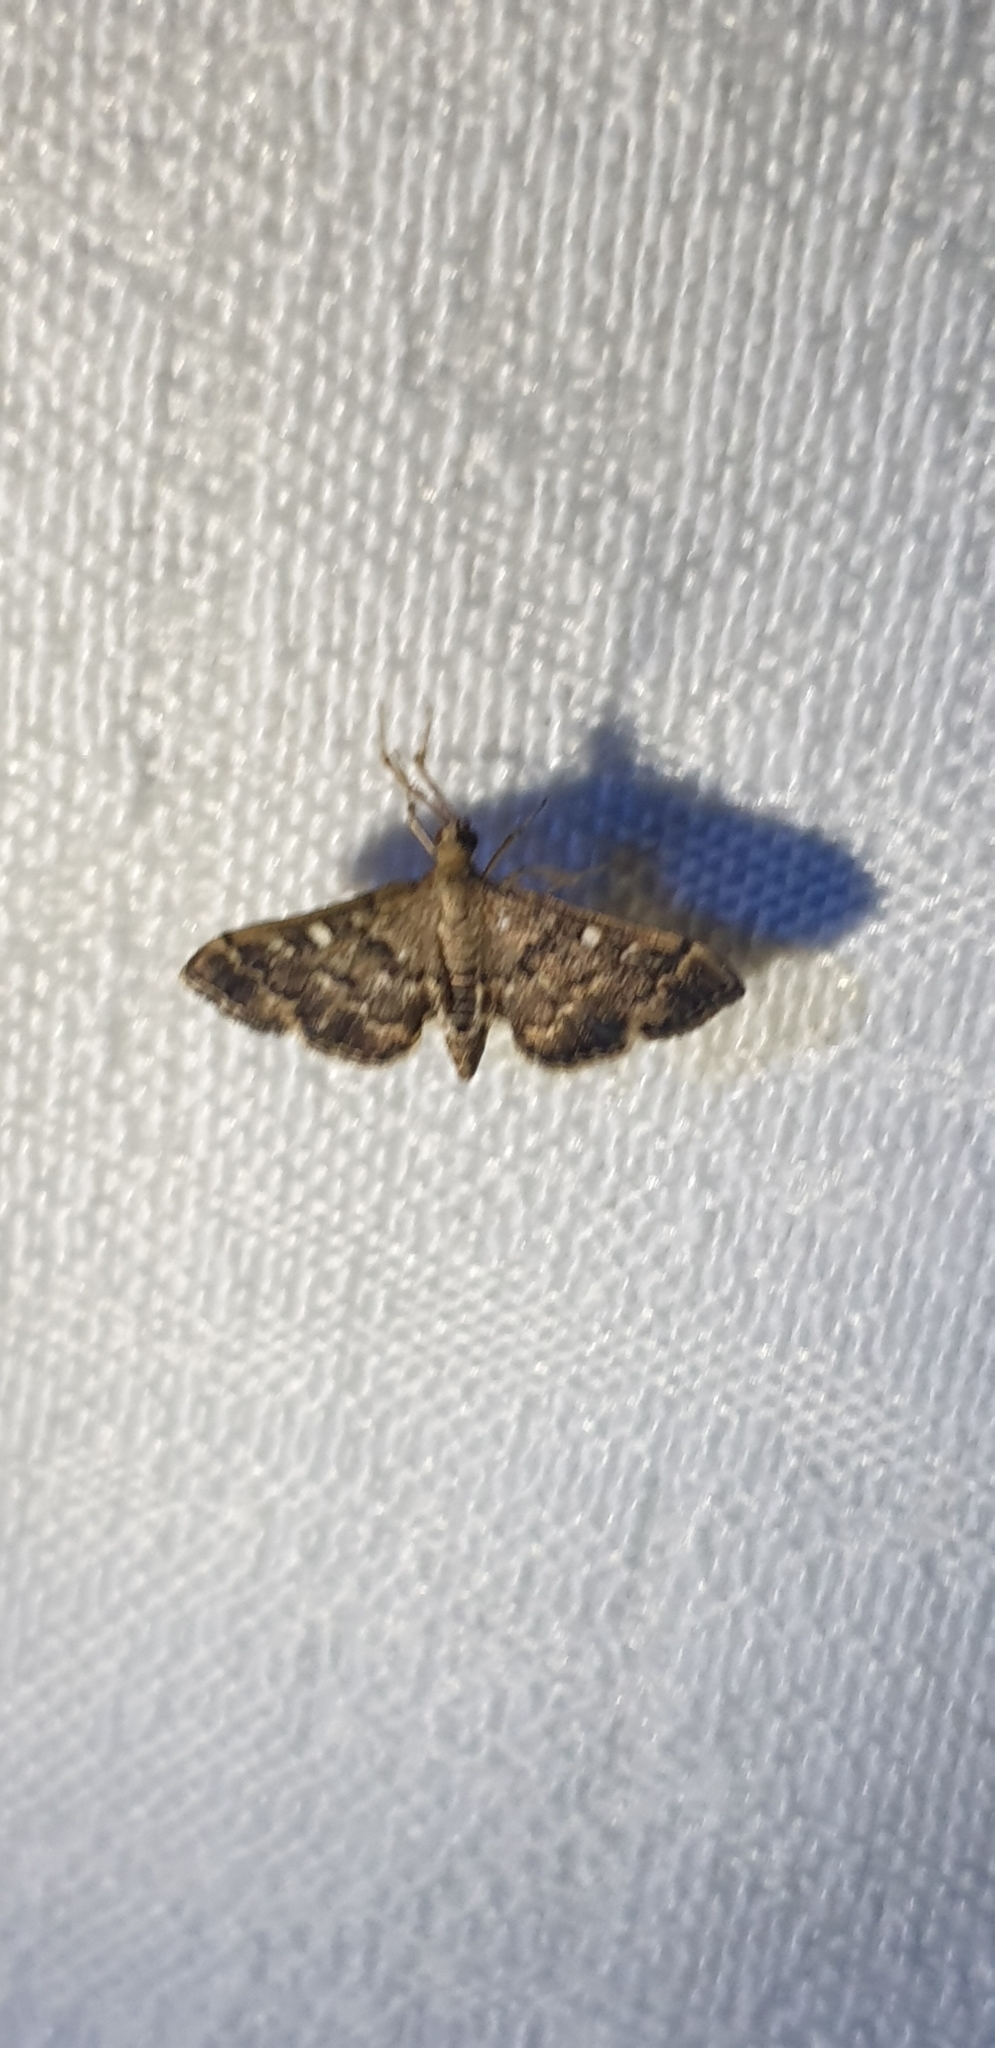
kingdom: Animalia
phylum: Arthropoda
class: Insecta
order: Lepidoptera
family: Crambidae
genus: Nacoleia
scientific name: Nacoleia rhoeoalis
